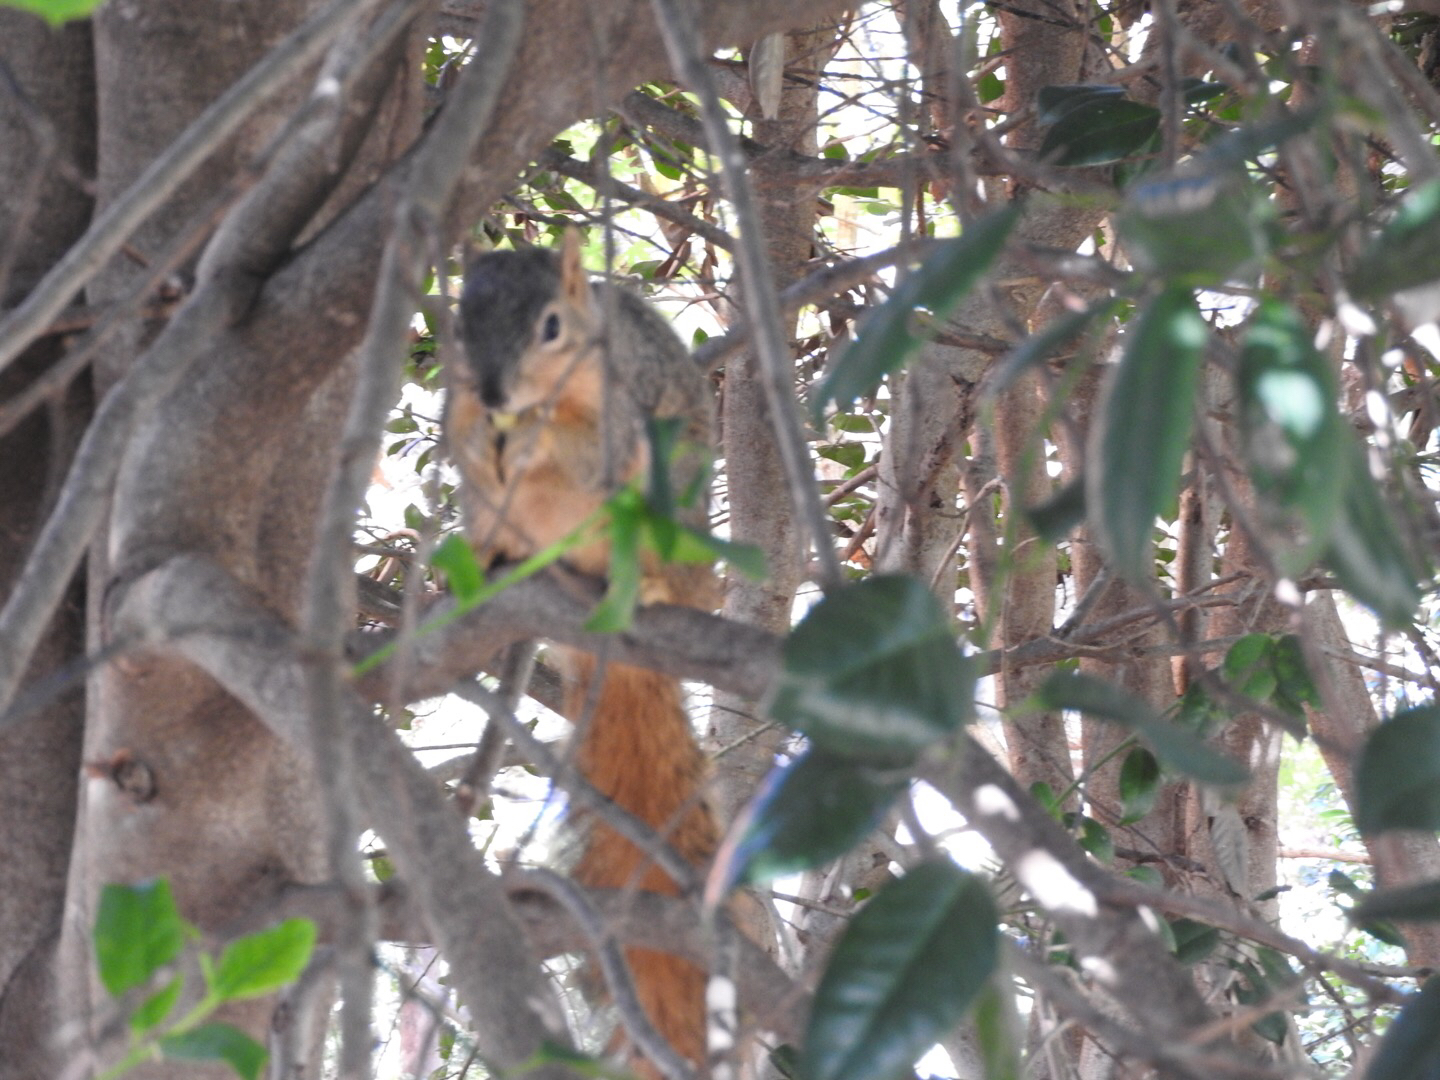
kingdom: Animalia
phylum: Chordata
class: Mammalia
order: Rodentia
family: Sciuridae
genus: Sciurus
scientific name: Sciurus niger
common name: Fox squirrel
